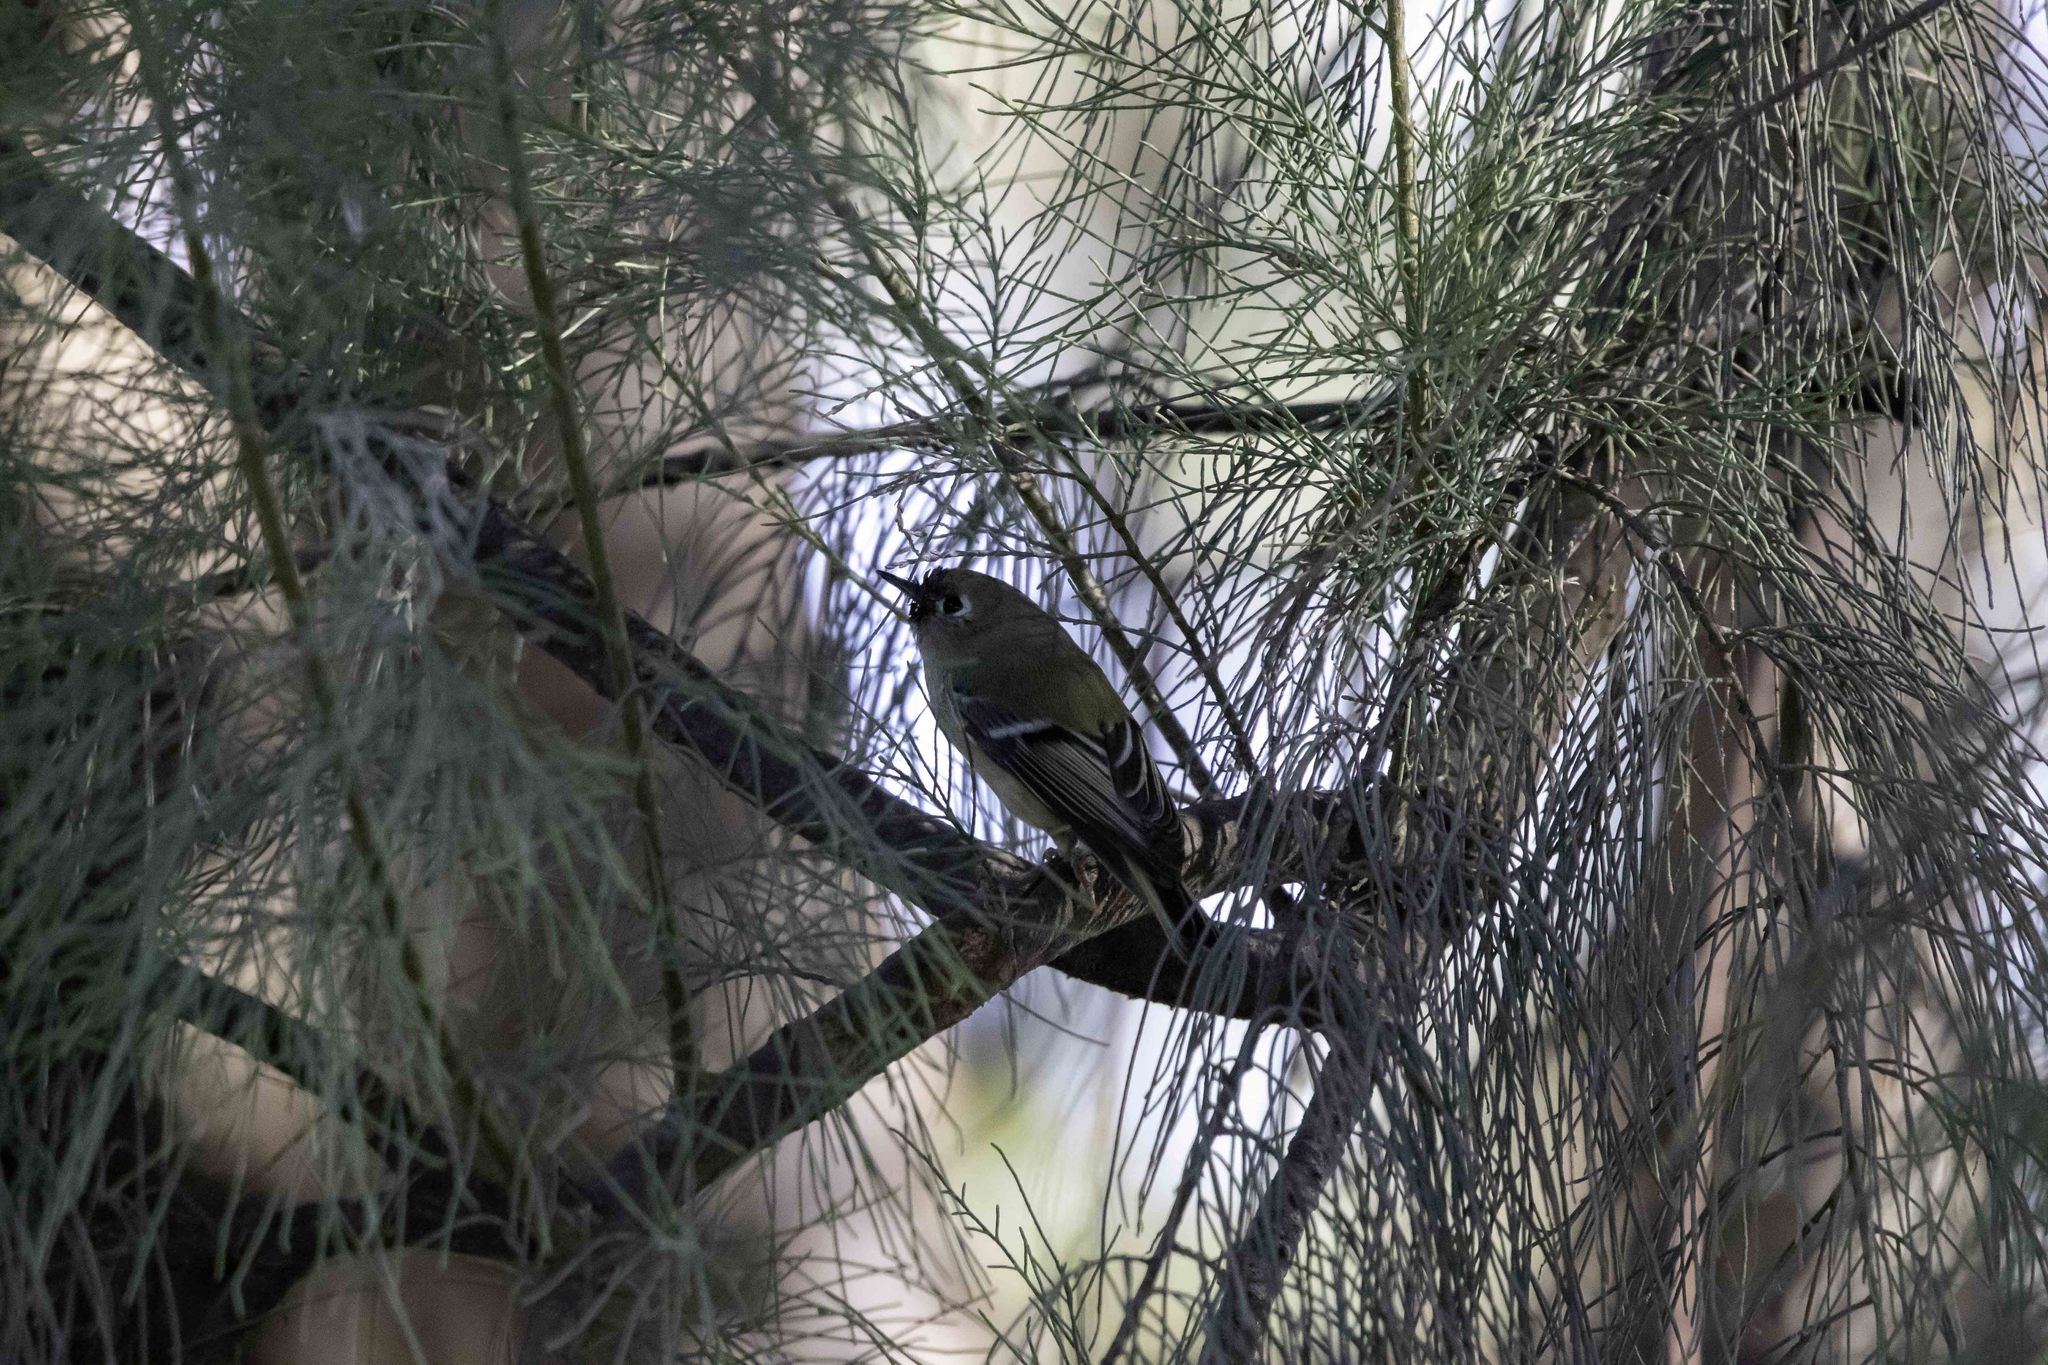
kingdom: Animalia
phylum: Chordata
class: Aves
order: Passeriformes
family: Regulidae
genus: Regulus
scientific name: Regulus calendula
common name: Ruby-crowned kinglet
